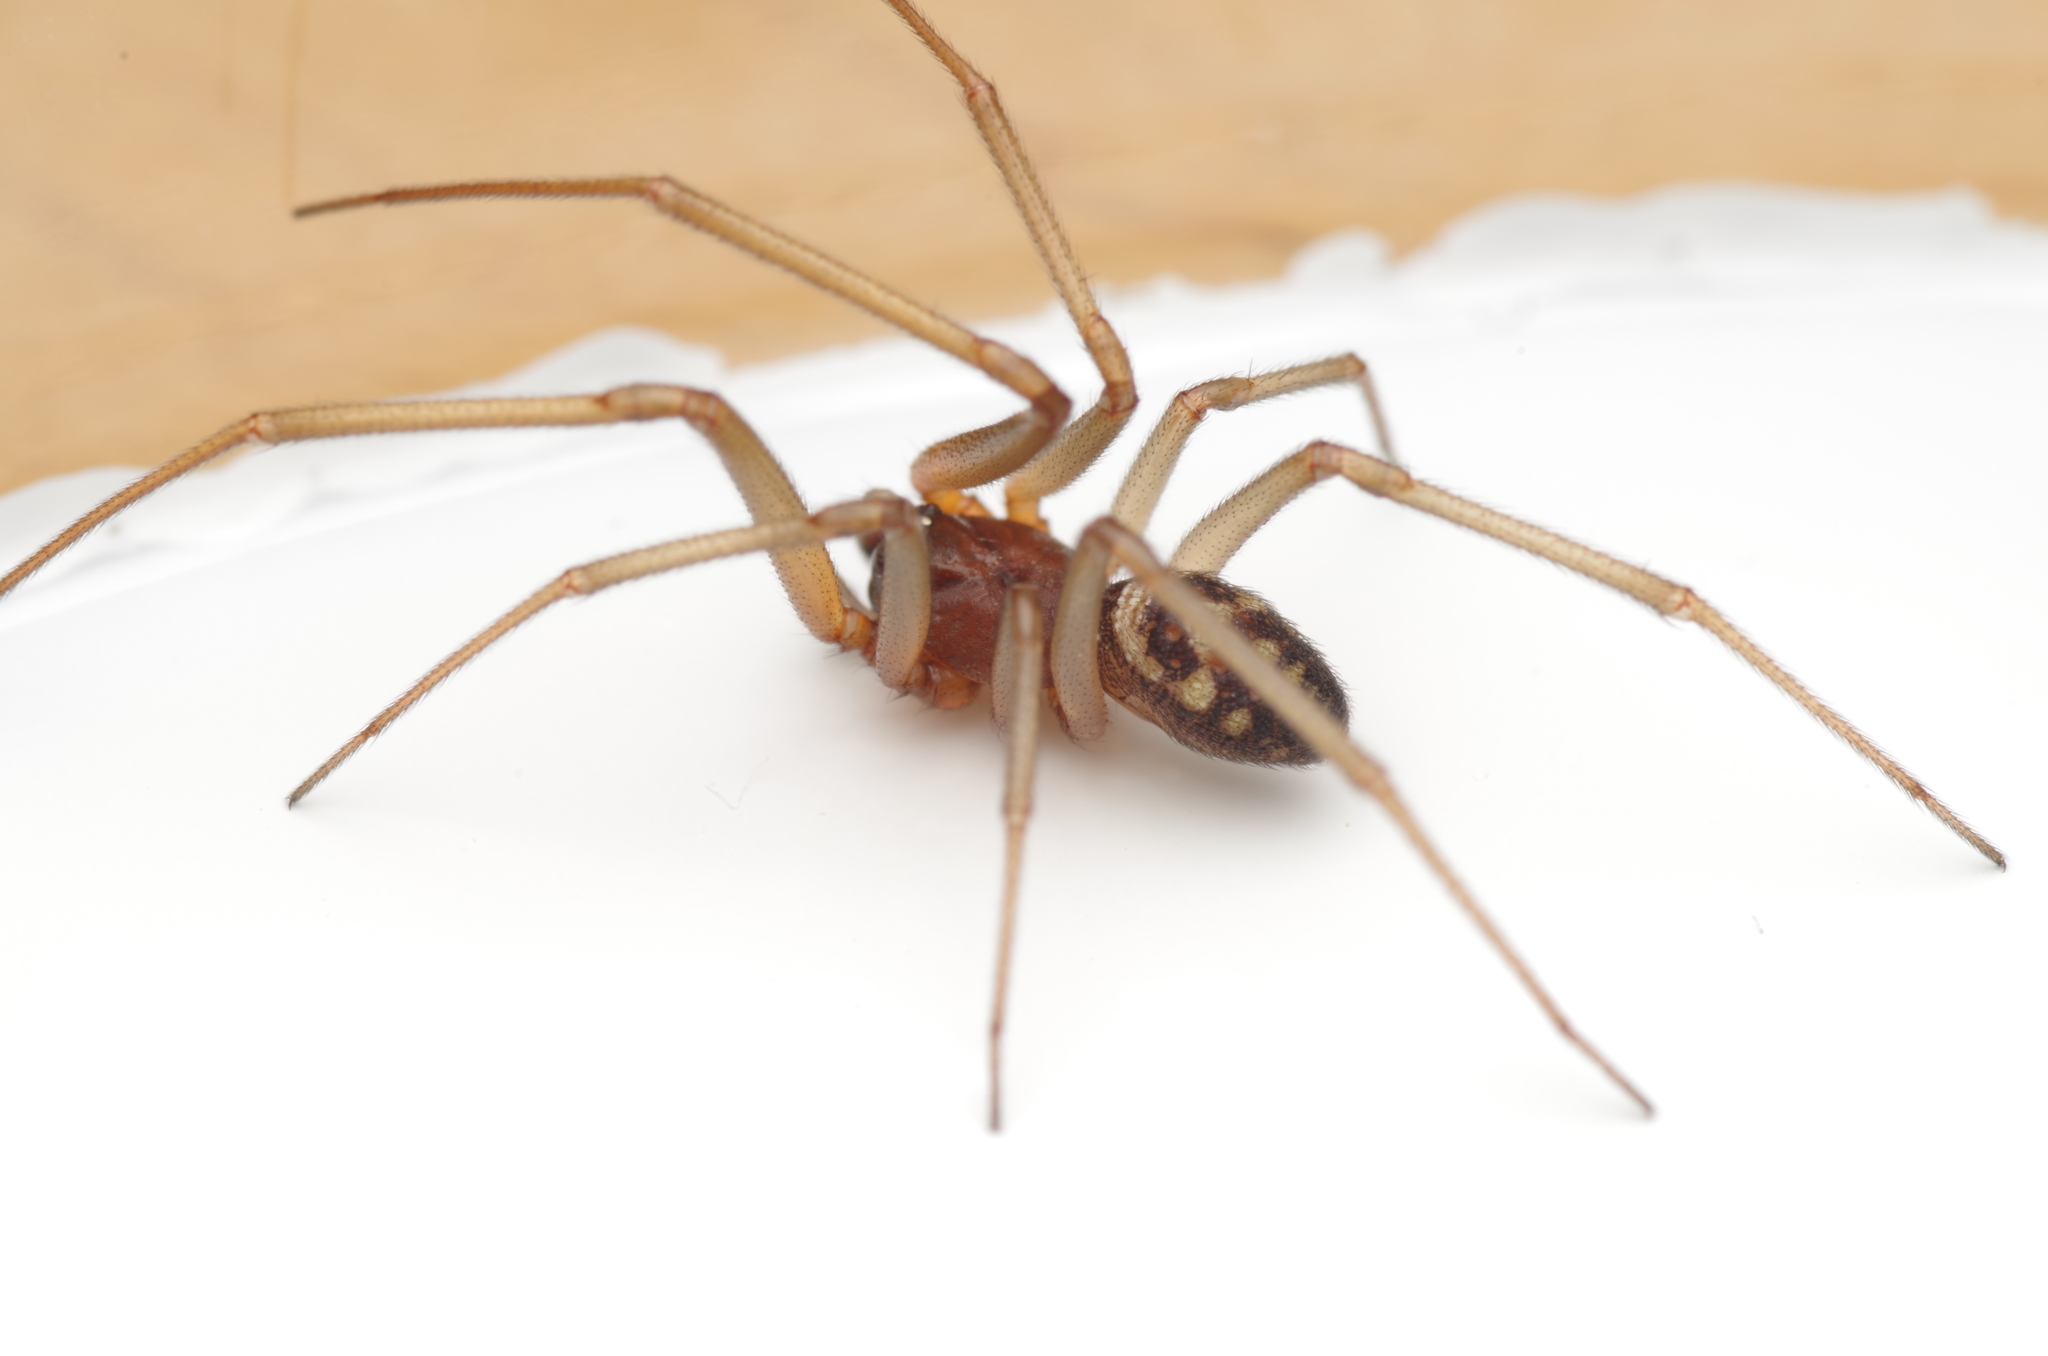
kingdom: Animalia
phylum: Arthropoda
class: Arachnida
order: Araneae
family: Theridiidae
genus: Steatoda
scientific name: Steatoda grossa
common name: False black widow
